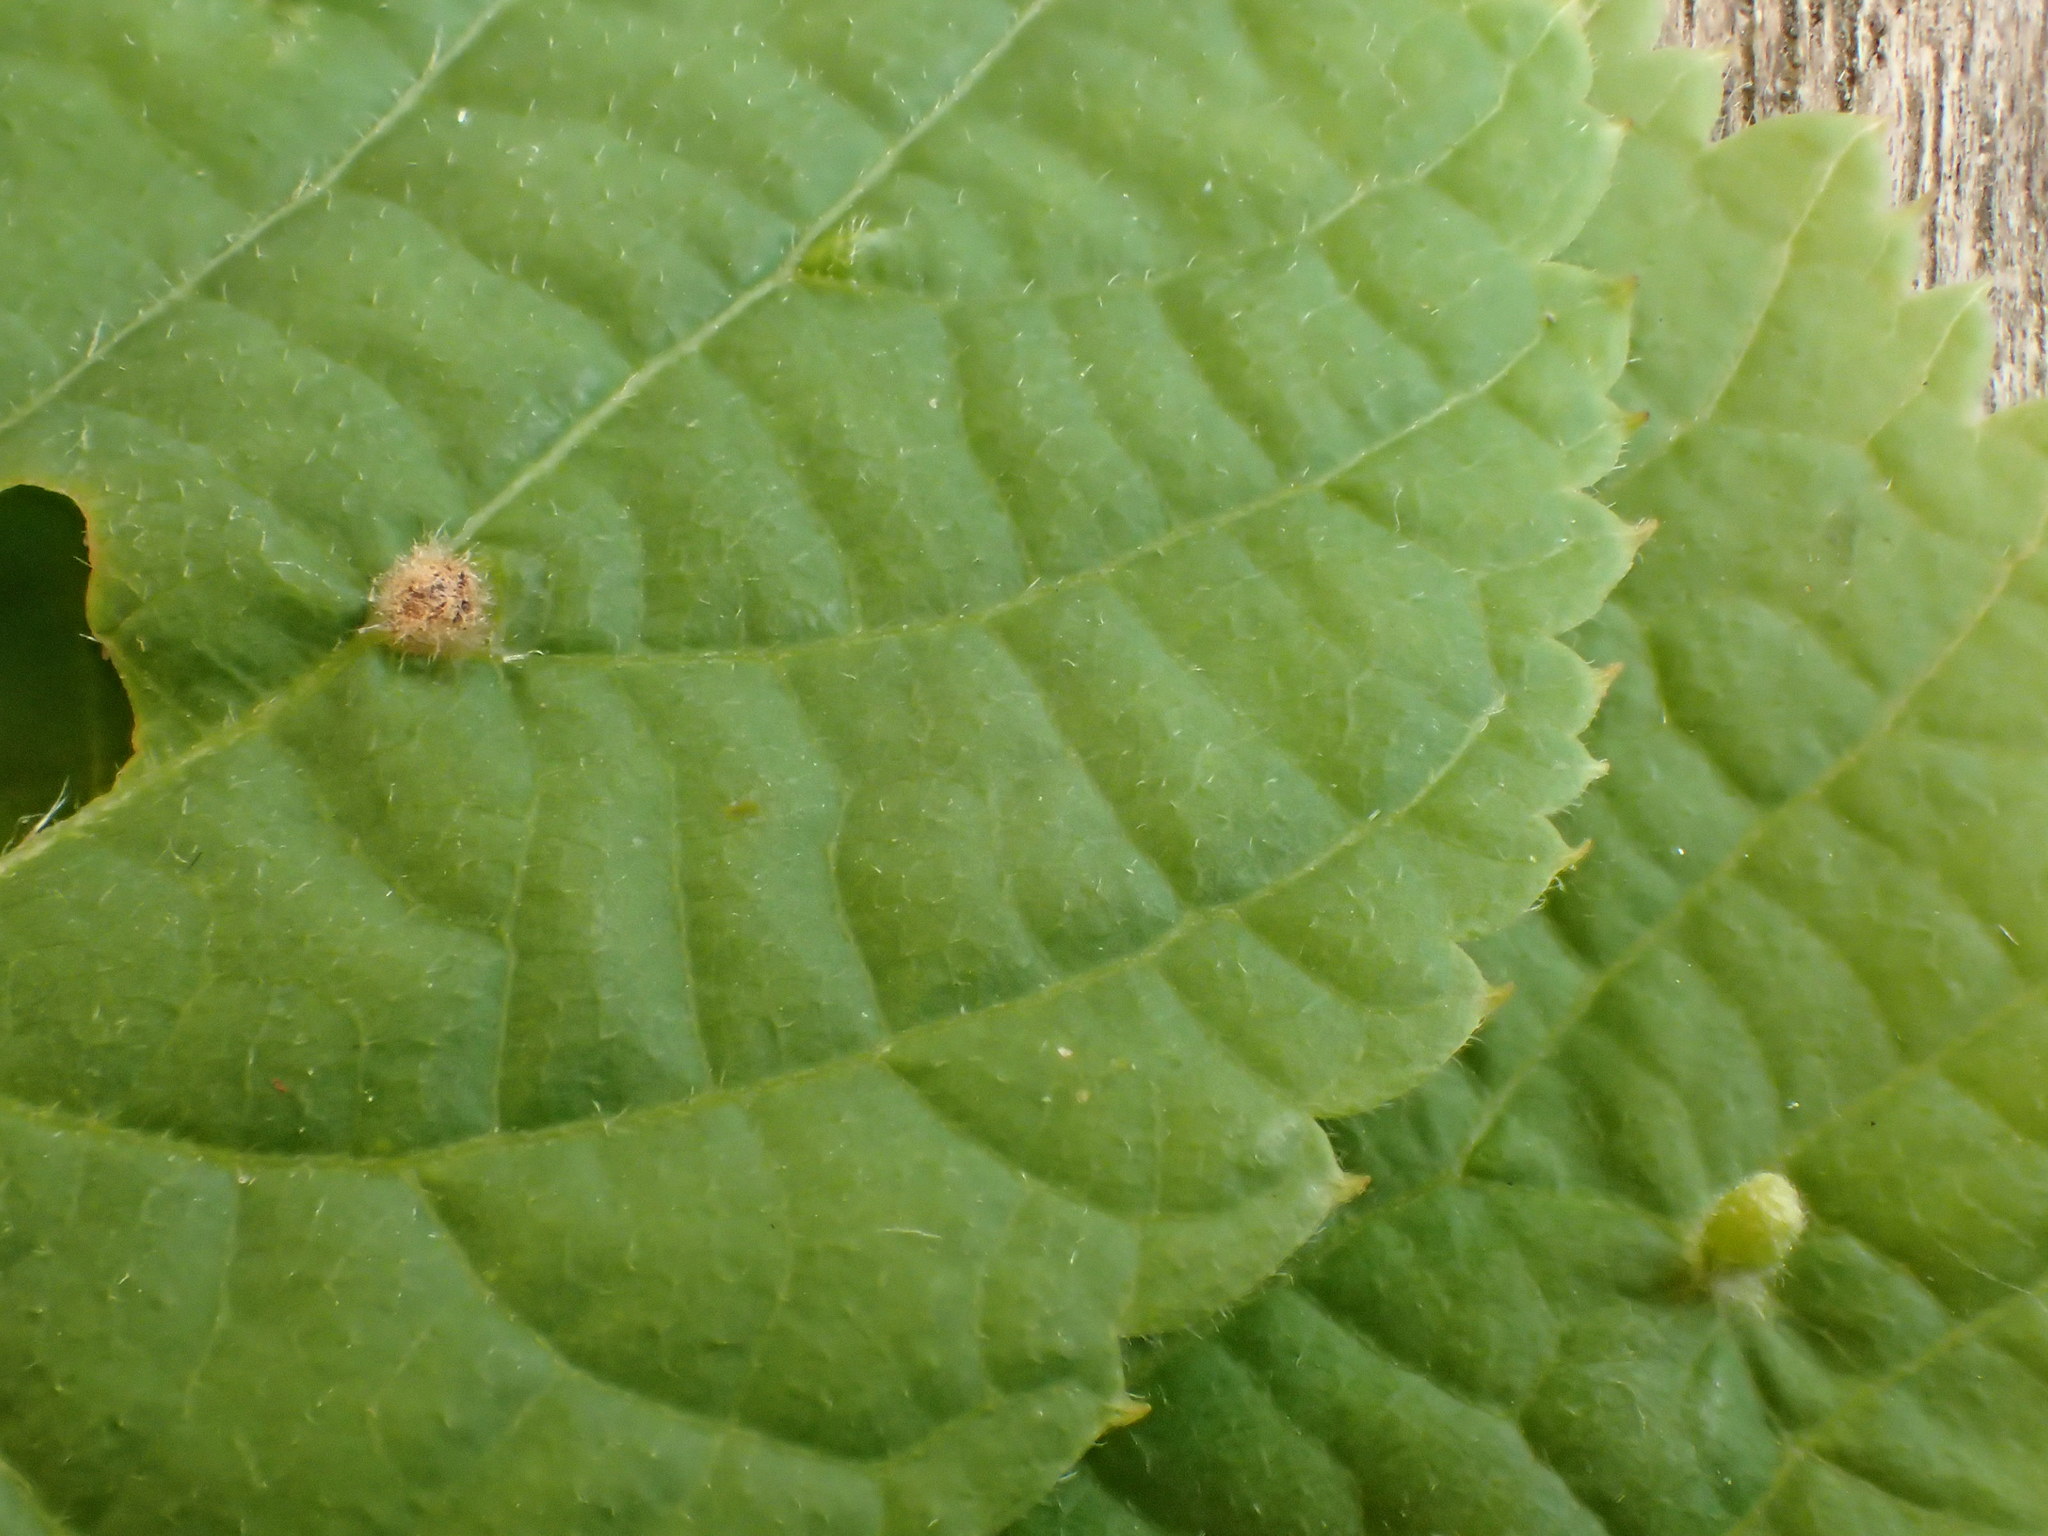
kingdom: Animalia
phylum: Arthropoda
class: Arachnida
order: Trombidiformes
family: Eriophyidae
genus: Eriophyes
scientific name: Eriophyes exilis
